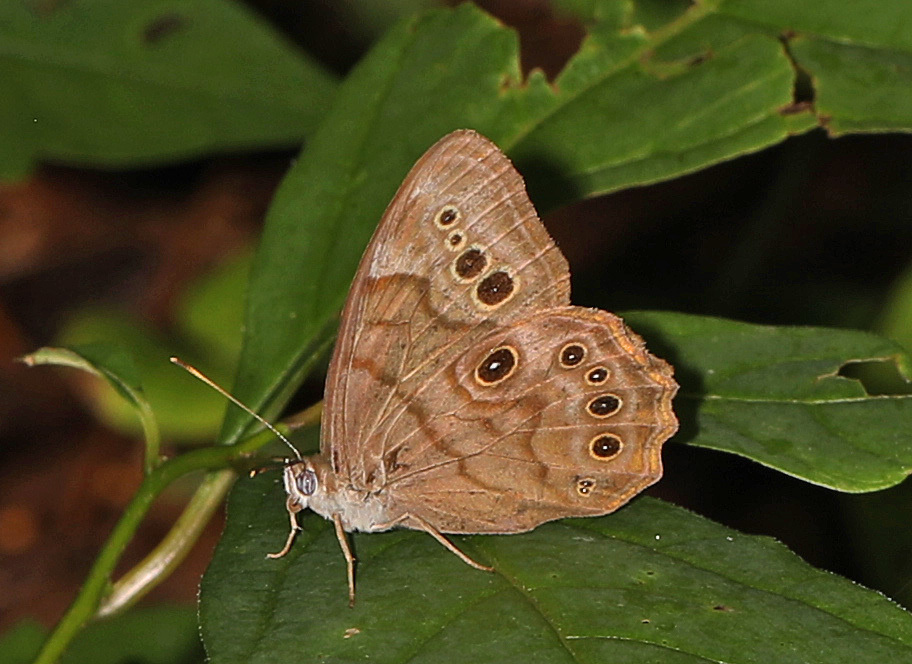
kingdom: Animalia
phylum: Arthropoda
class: Insecta
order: Lepidoptera
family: Nymphalidae
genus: Lethe
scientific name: Lethe anthedon
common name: Northern pearly-eye
